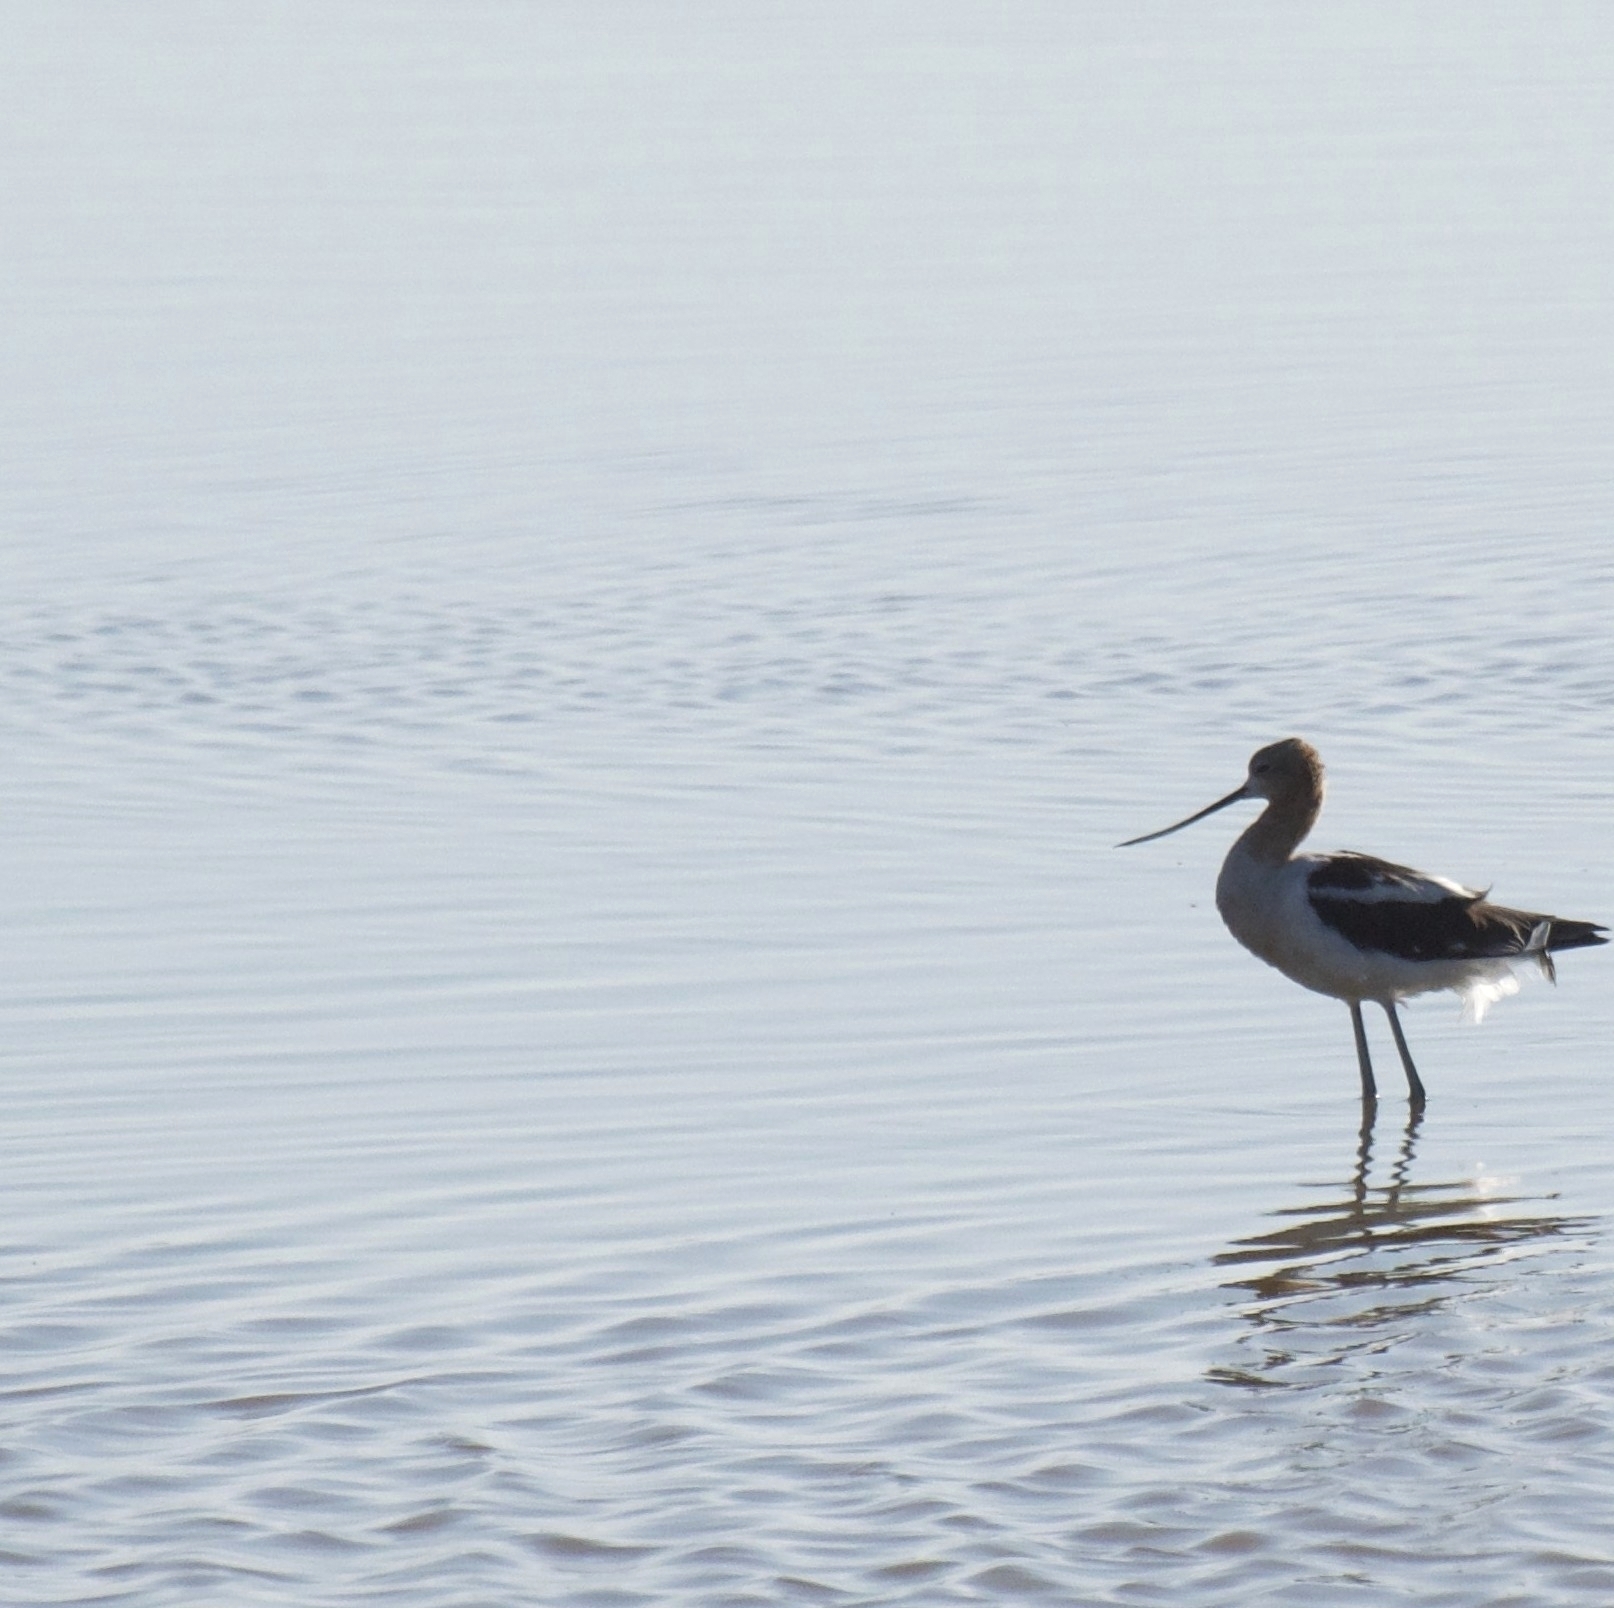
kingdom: Animalia
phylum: Chordata
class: Aves
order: Charadriiformes
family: Recurvirostridae
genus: Recurvirostra
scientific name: Recurvirostra americana
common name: American avocet
